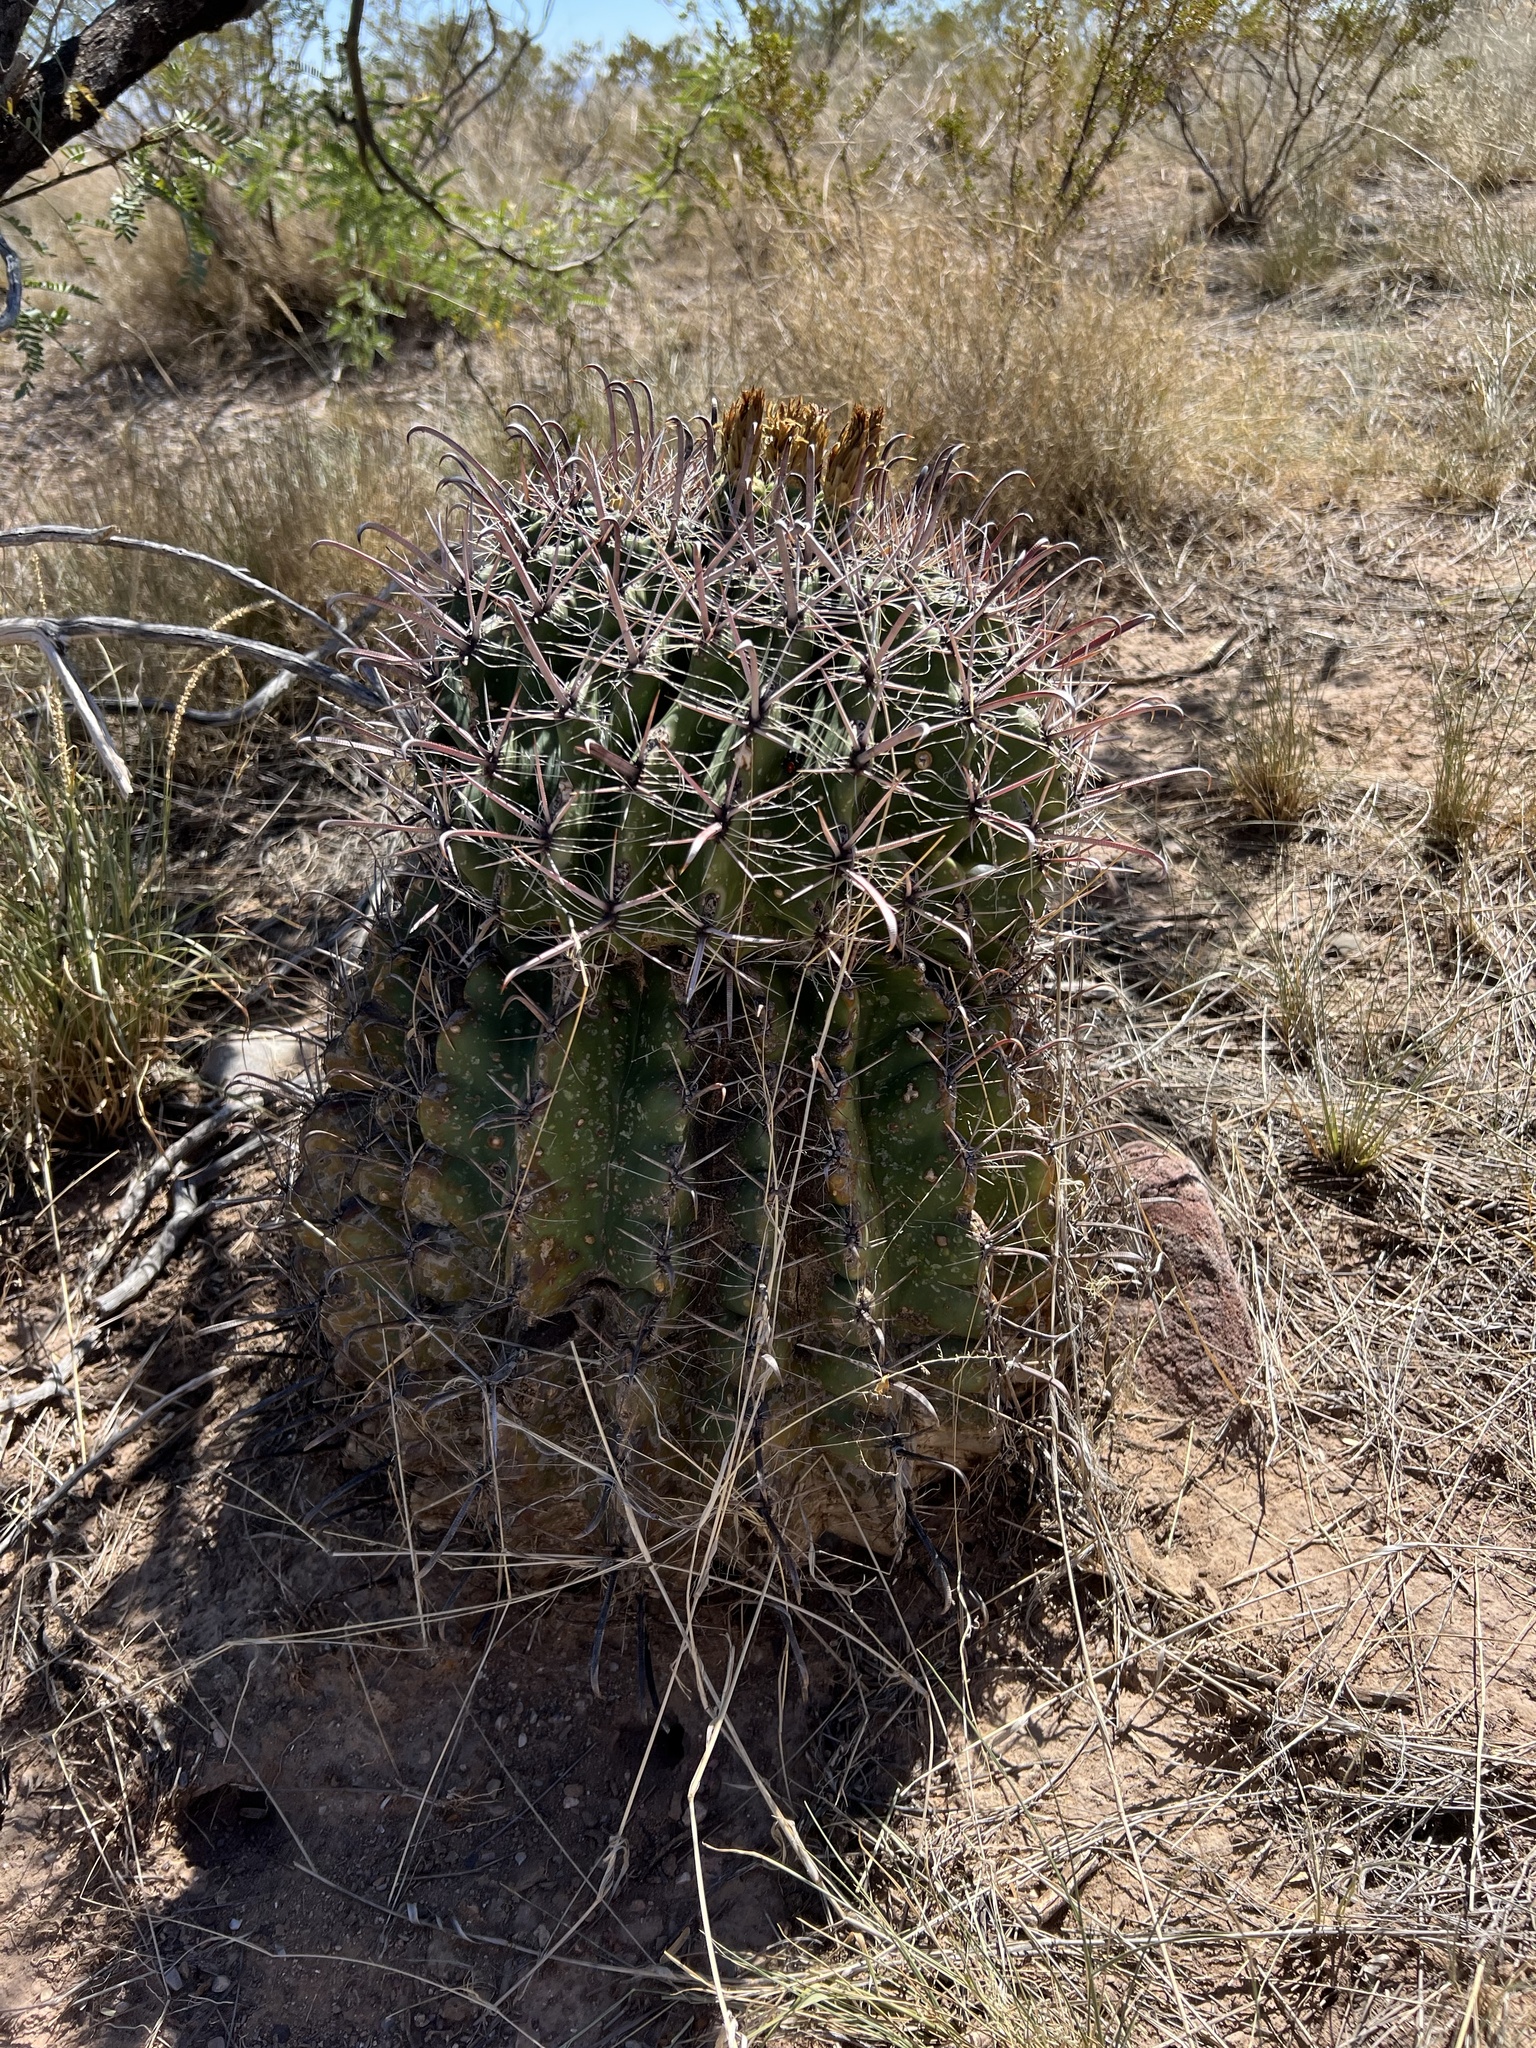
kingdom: Plantae
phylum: Tracheophyta
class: Magnoliopsida
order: Caryophyllales
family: Cactaceae
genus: Ferocactus
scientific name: Ferocactus wislizeni
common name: Candy barrel cactus
